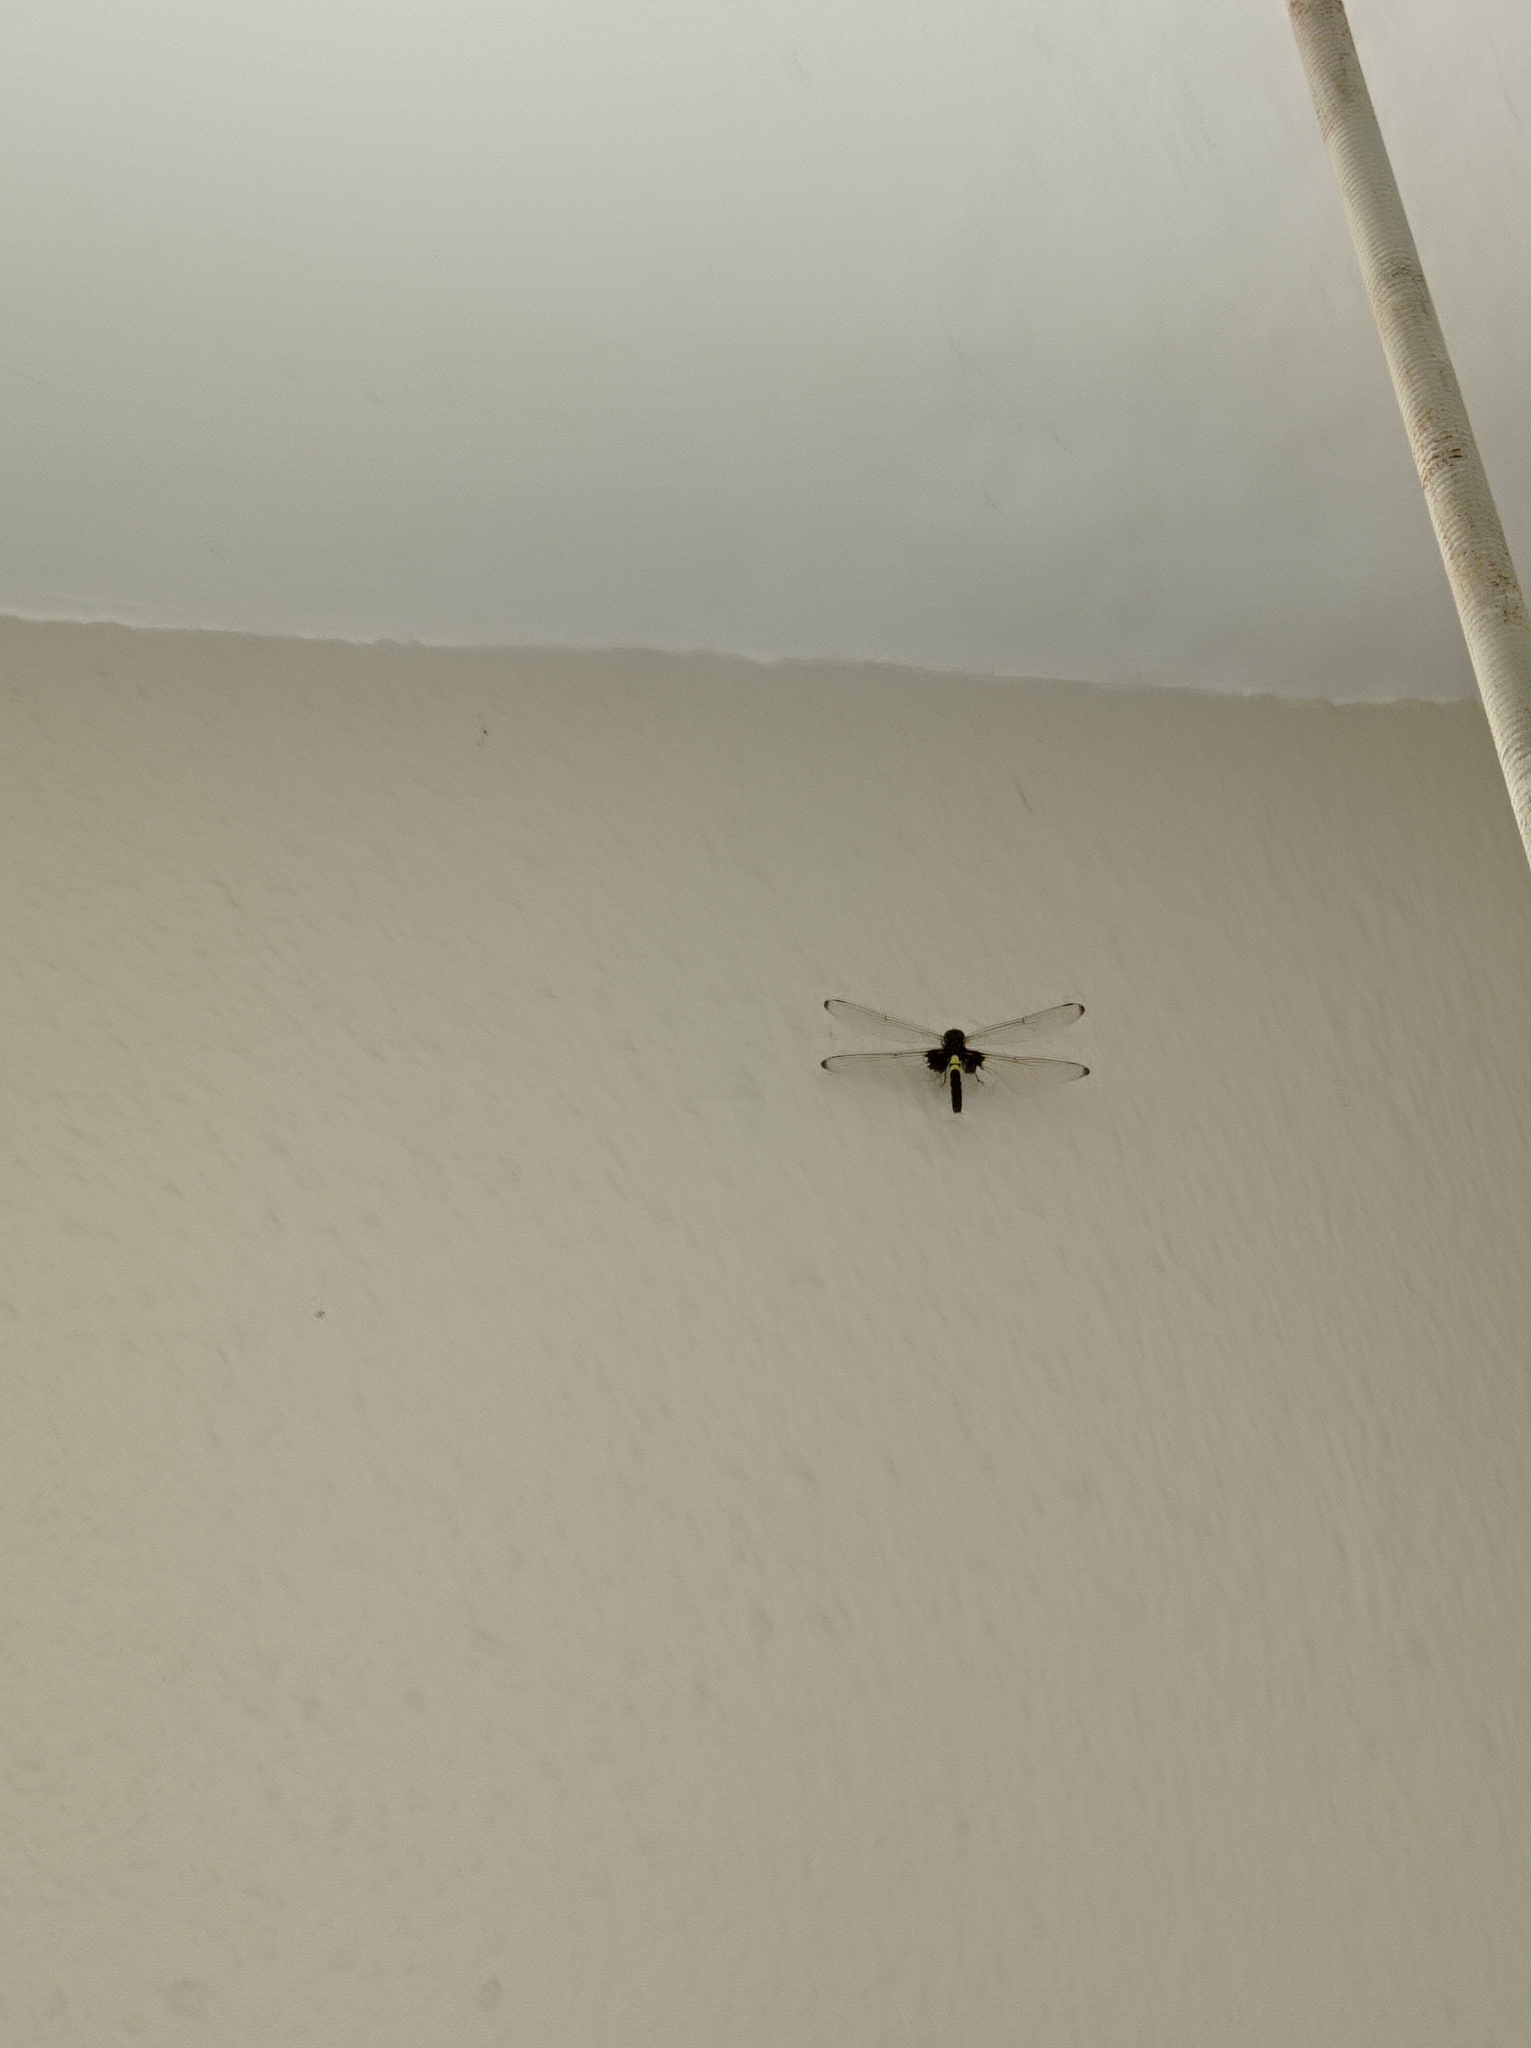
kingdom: Animalia
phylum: Arthropoda
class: Insecta
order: Odonata
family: Libellulidae
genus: Pseudothemis
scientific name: Pseudothemis zonata
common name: Pied skimmer
